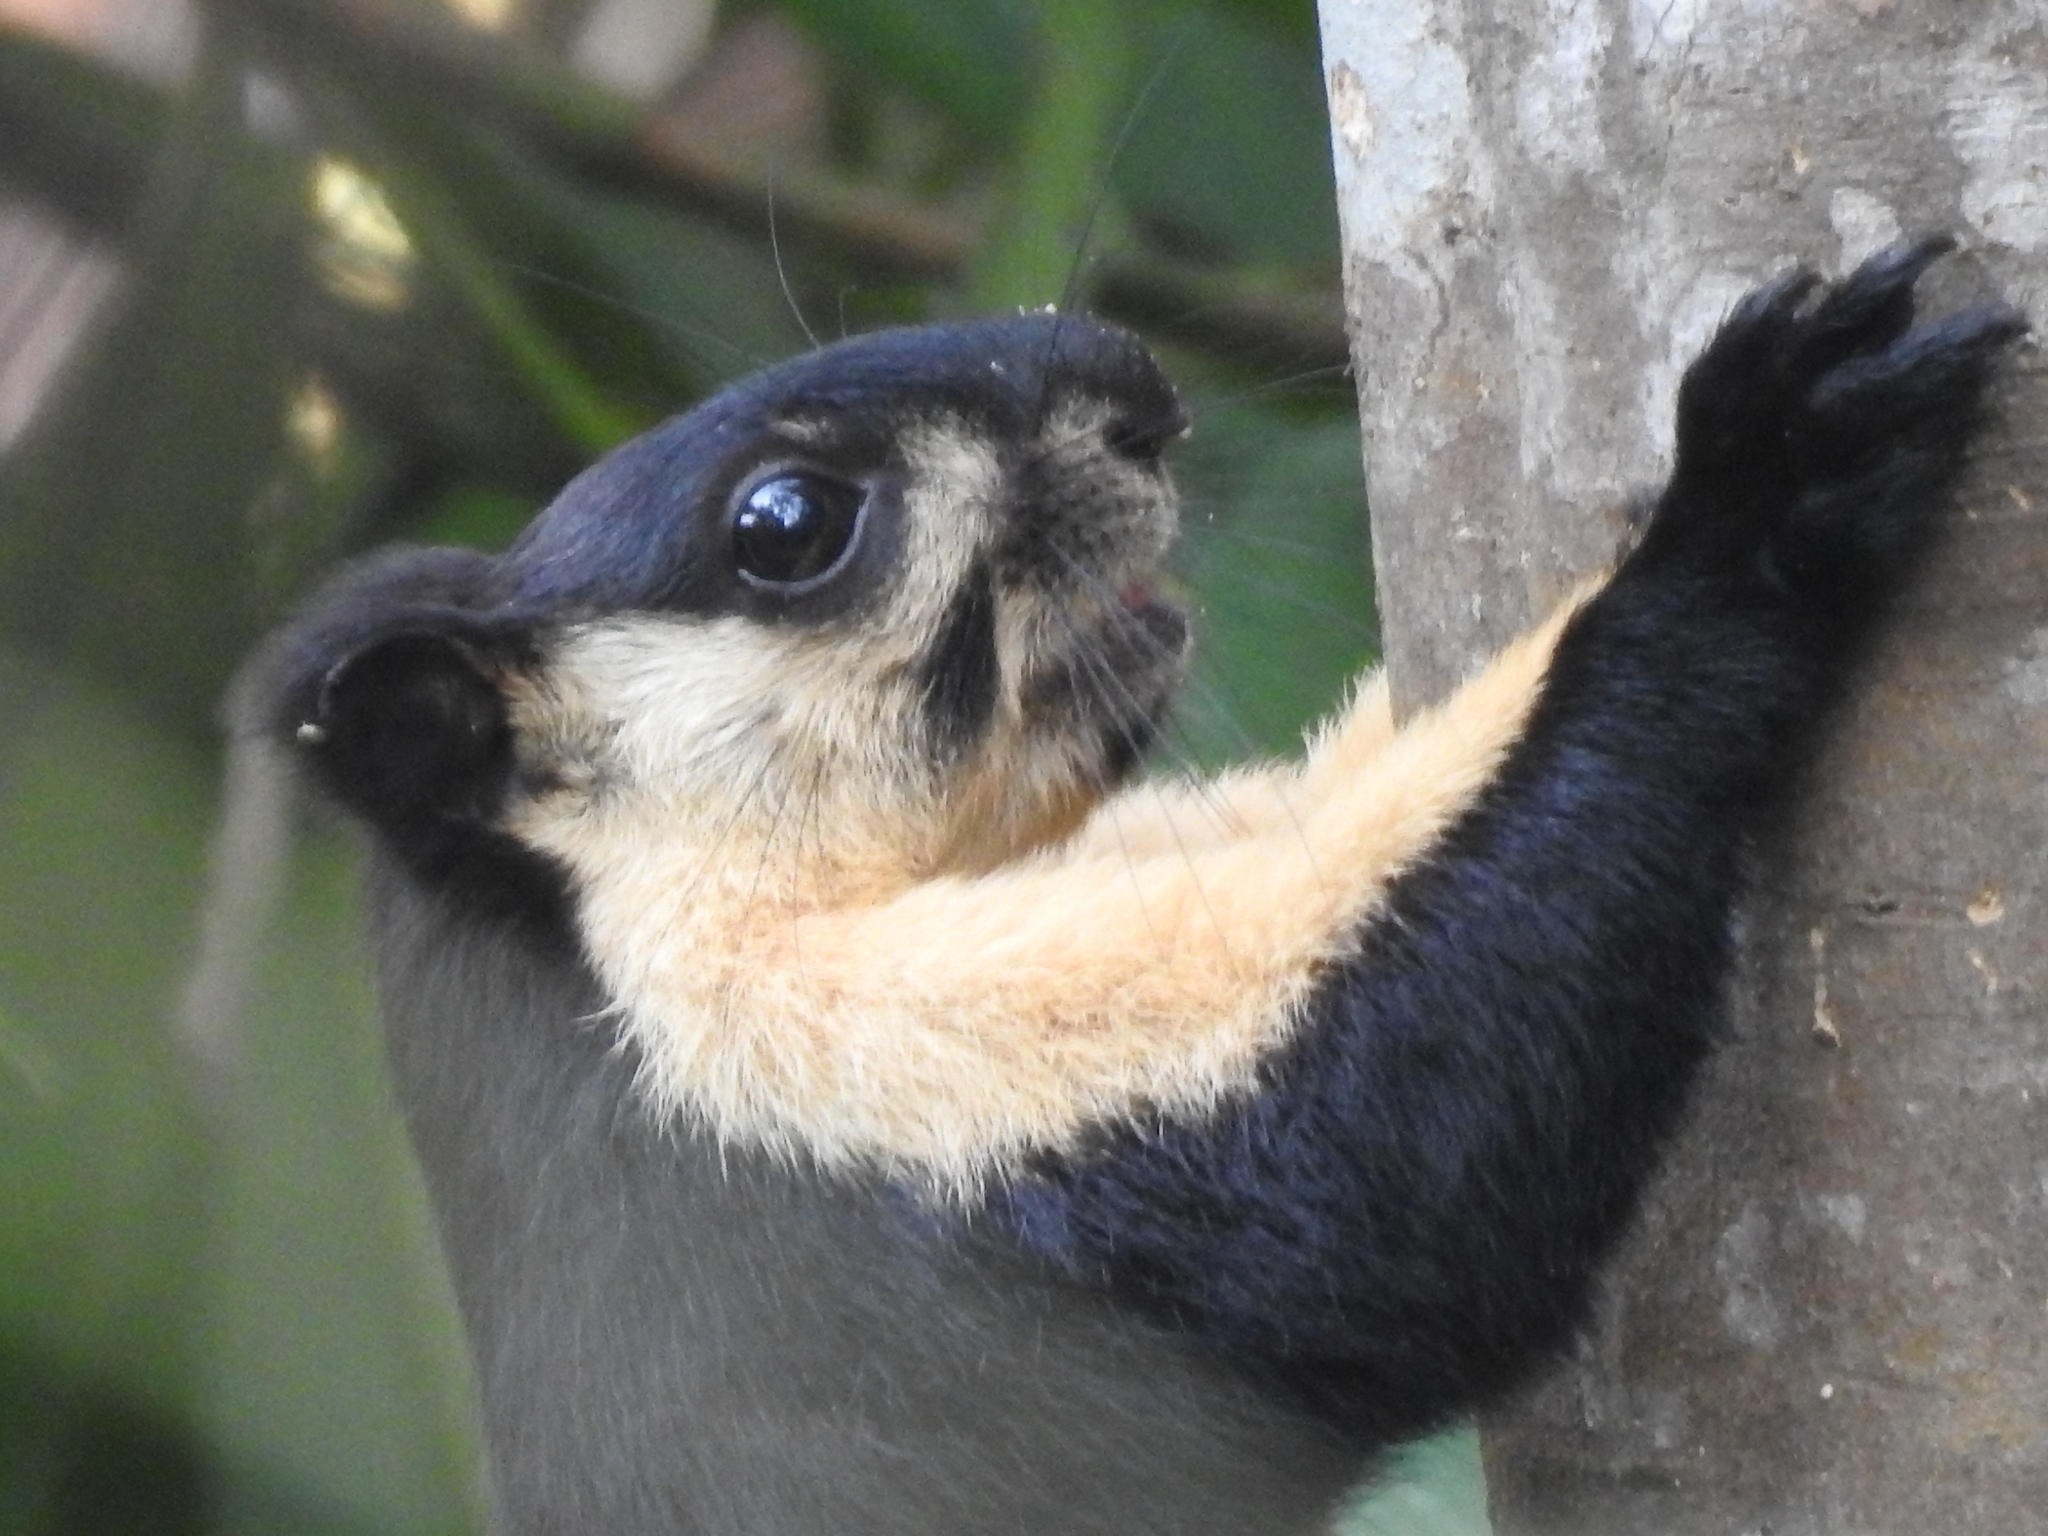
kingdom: Animalia
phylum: Chordata
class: Mammalia
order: Rodentia
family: Sciuridae
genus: Ratufa
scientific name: Ratufa bicolor
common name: Black giant squirrel
